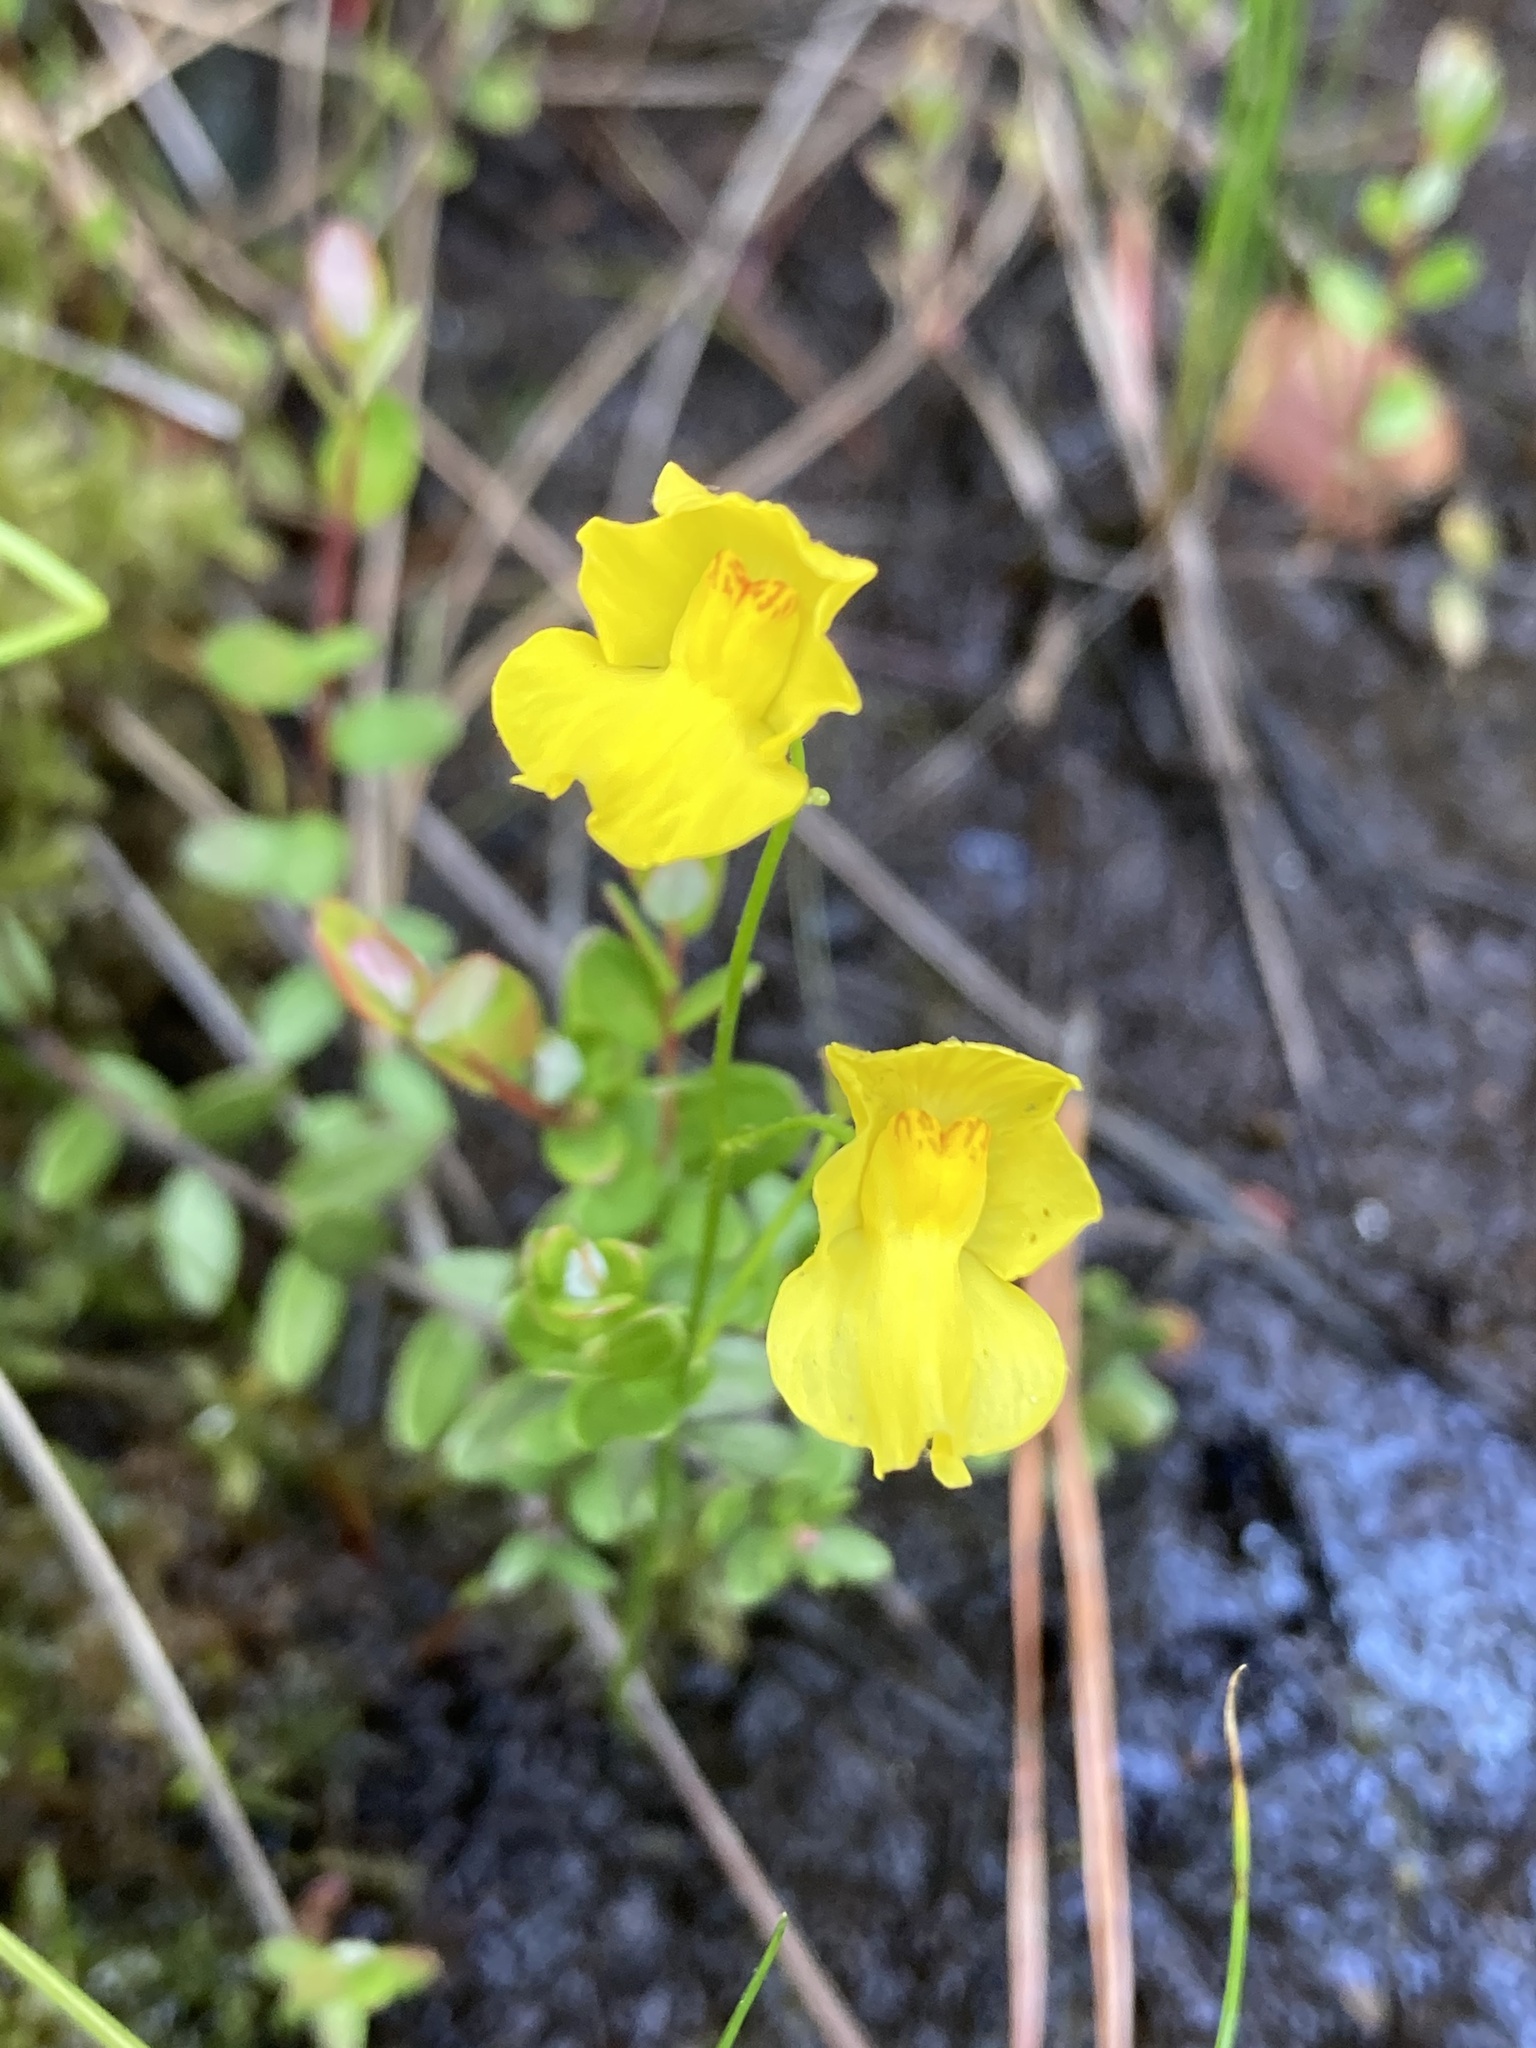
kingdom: Plantae
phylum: Tracheophyta
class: Magnoliopsida
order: Lamiales
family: Lentibulariaceae
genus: Utricularia
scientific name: Utricularia striata
